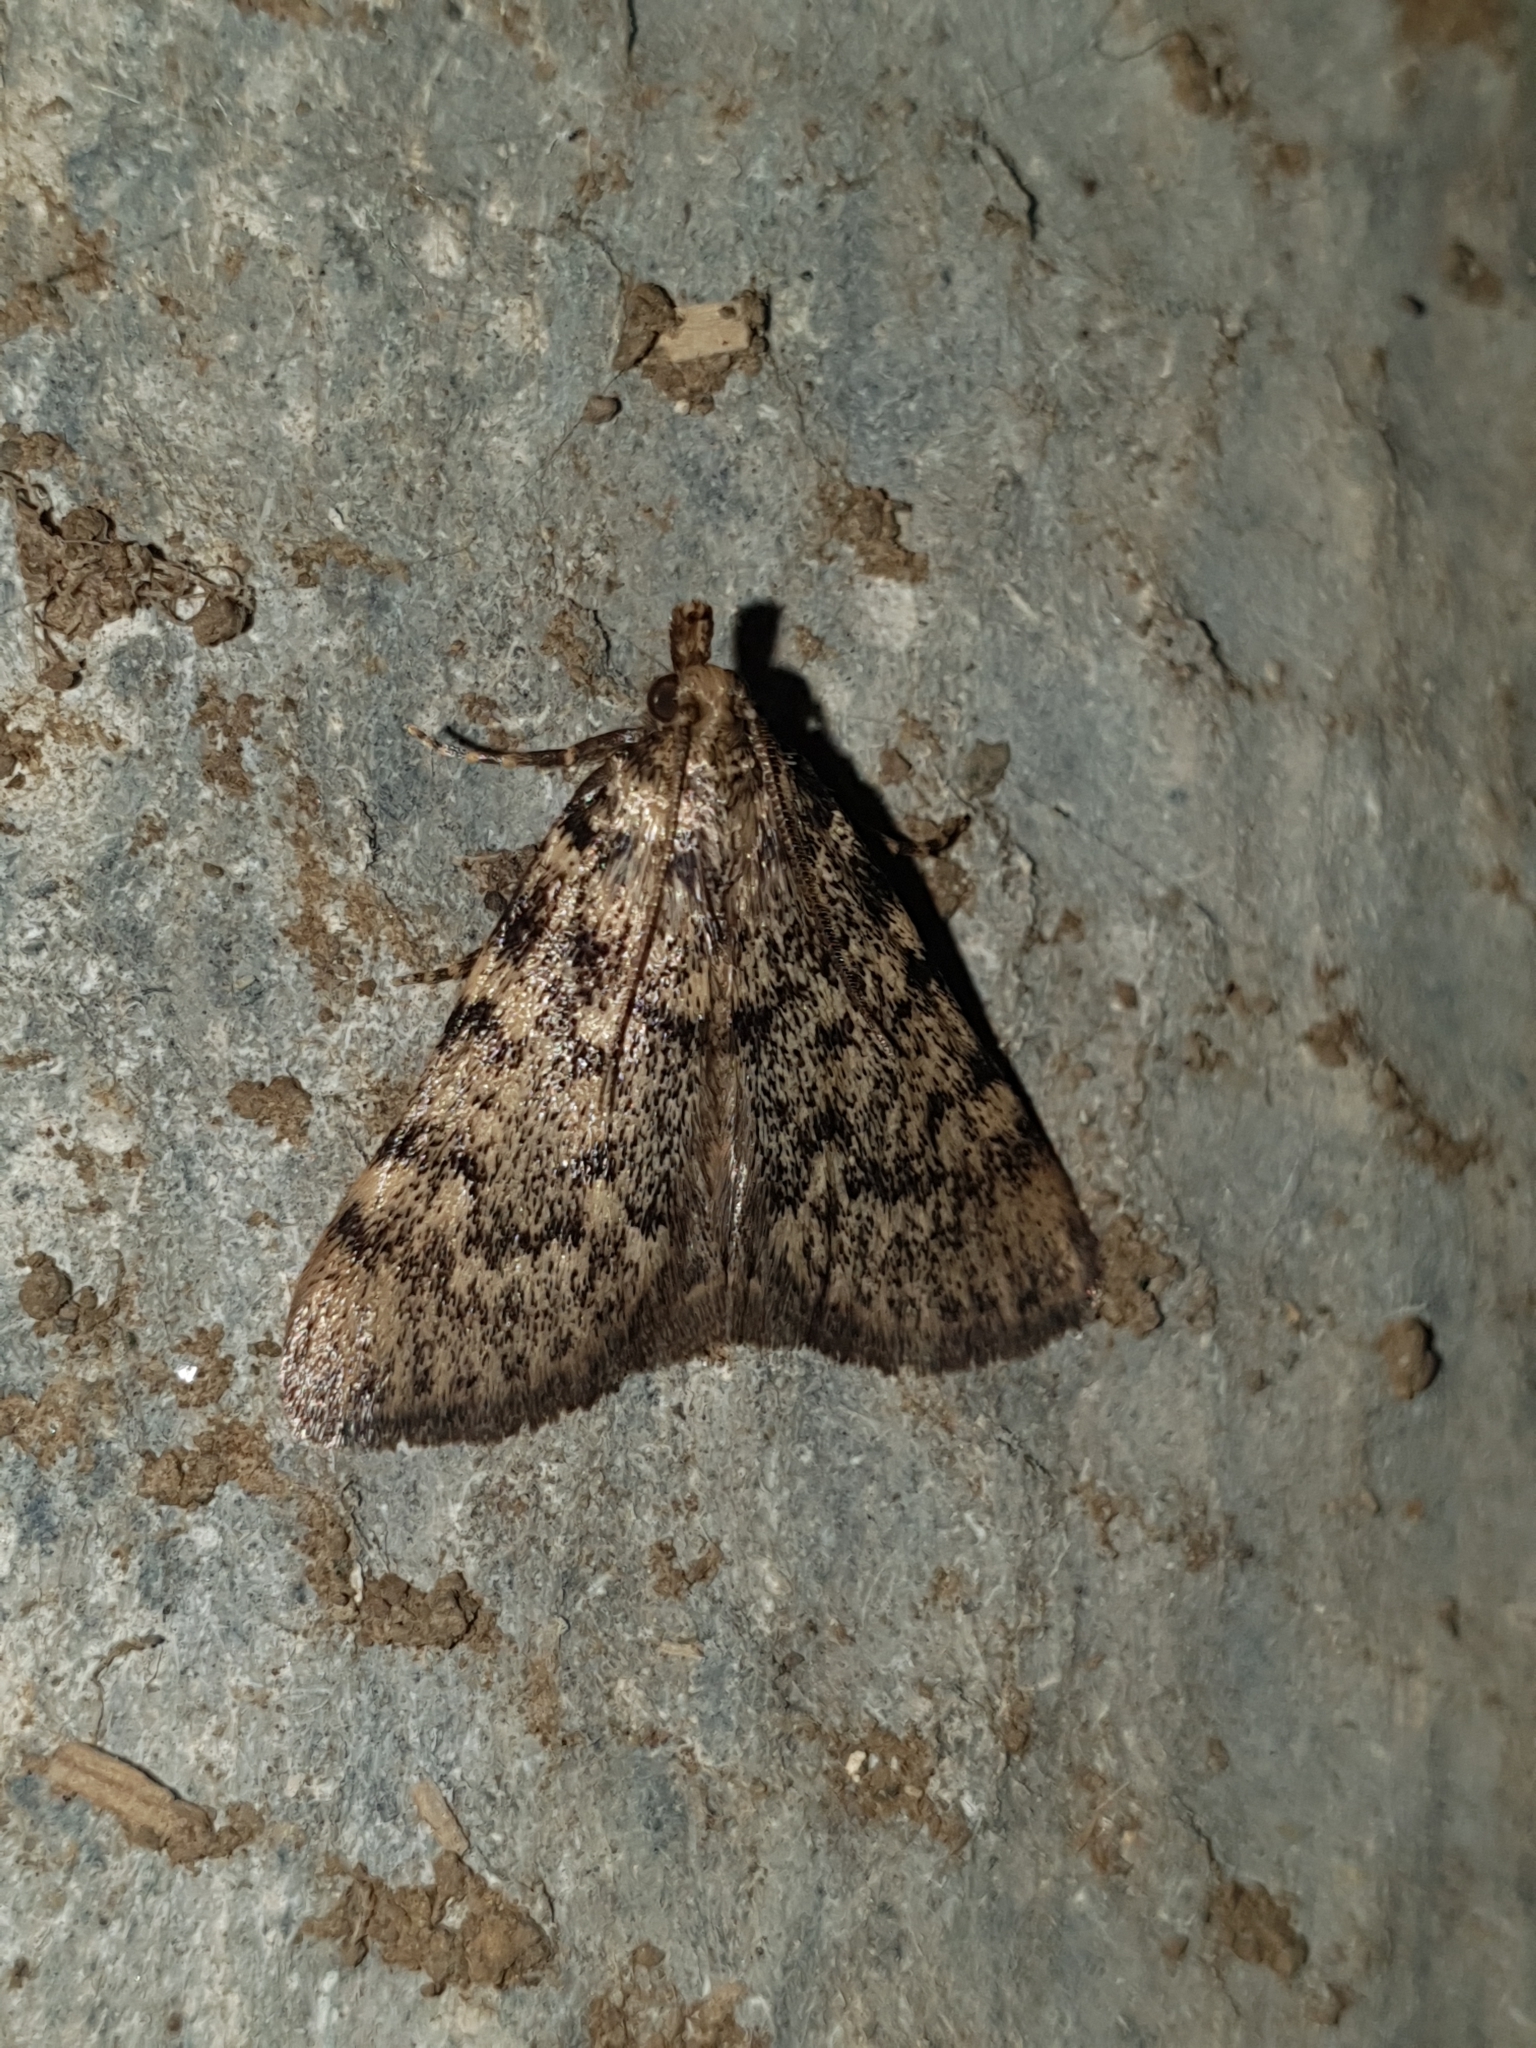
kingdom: Animalia
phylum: Arthropoda
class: Insecta
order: Lepidoptera
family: Pyralidae
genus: Aglossa
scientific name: Aglossa pinguinalis
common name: Large tabby
